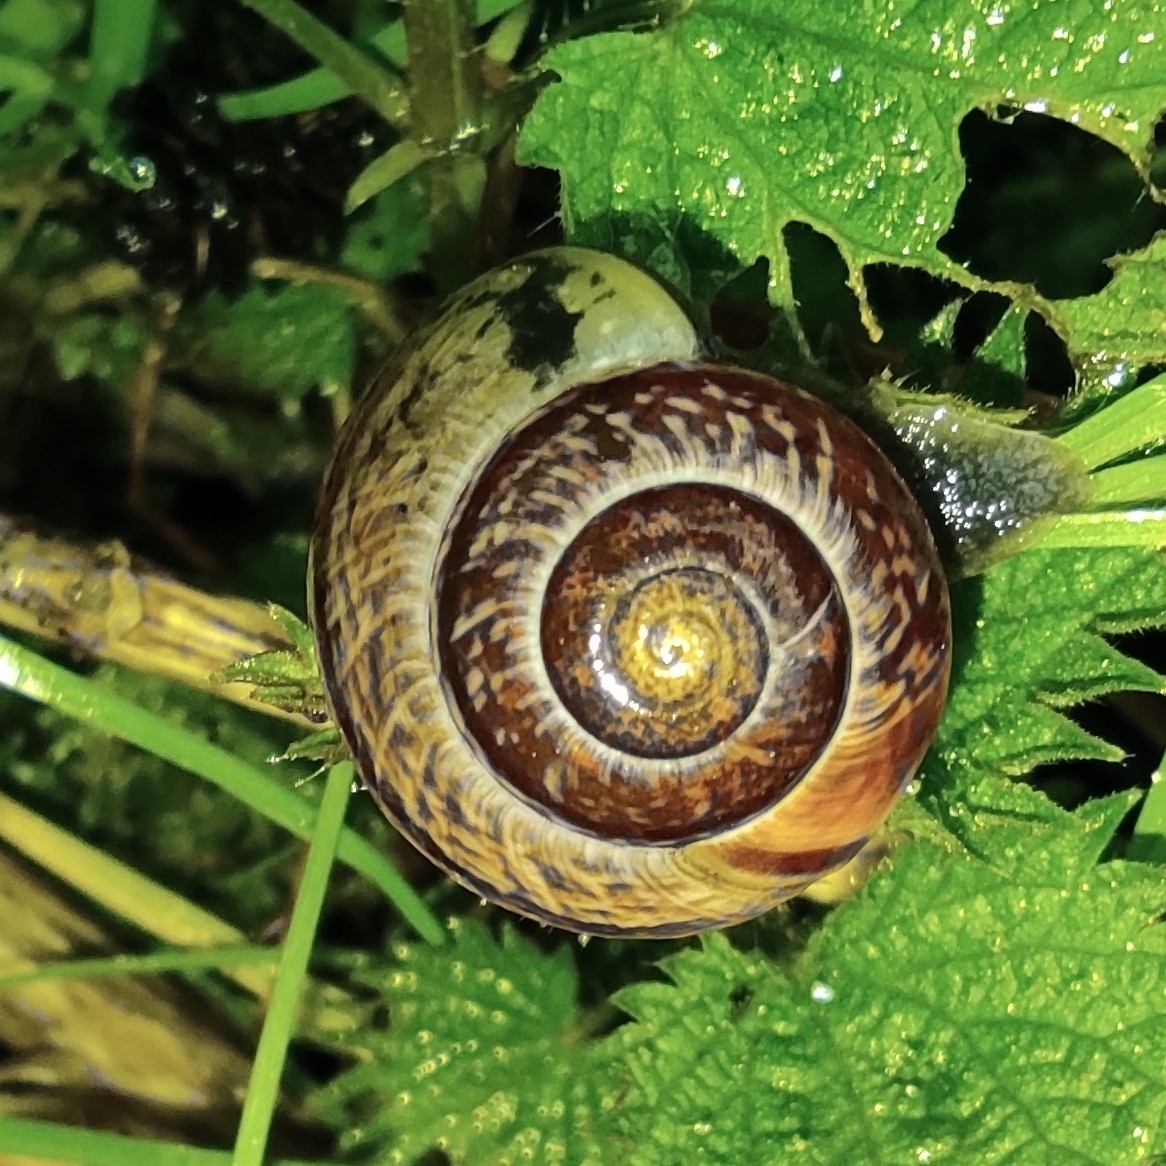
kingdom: Animalia
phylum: Mollusca
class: Gastropoda
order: Stylommatophora
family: Helicidae
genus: Arianta
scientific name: Arianta arbustorum
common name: Copse snail
